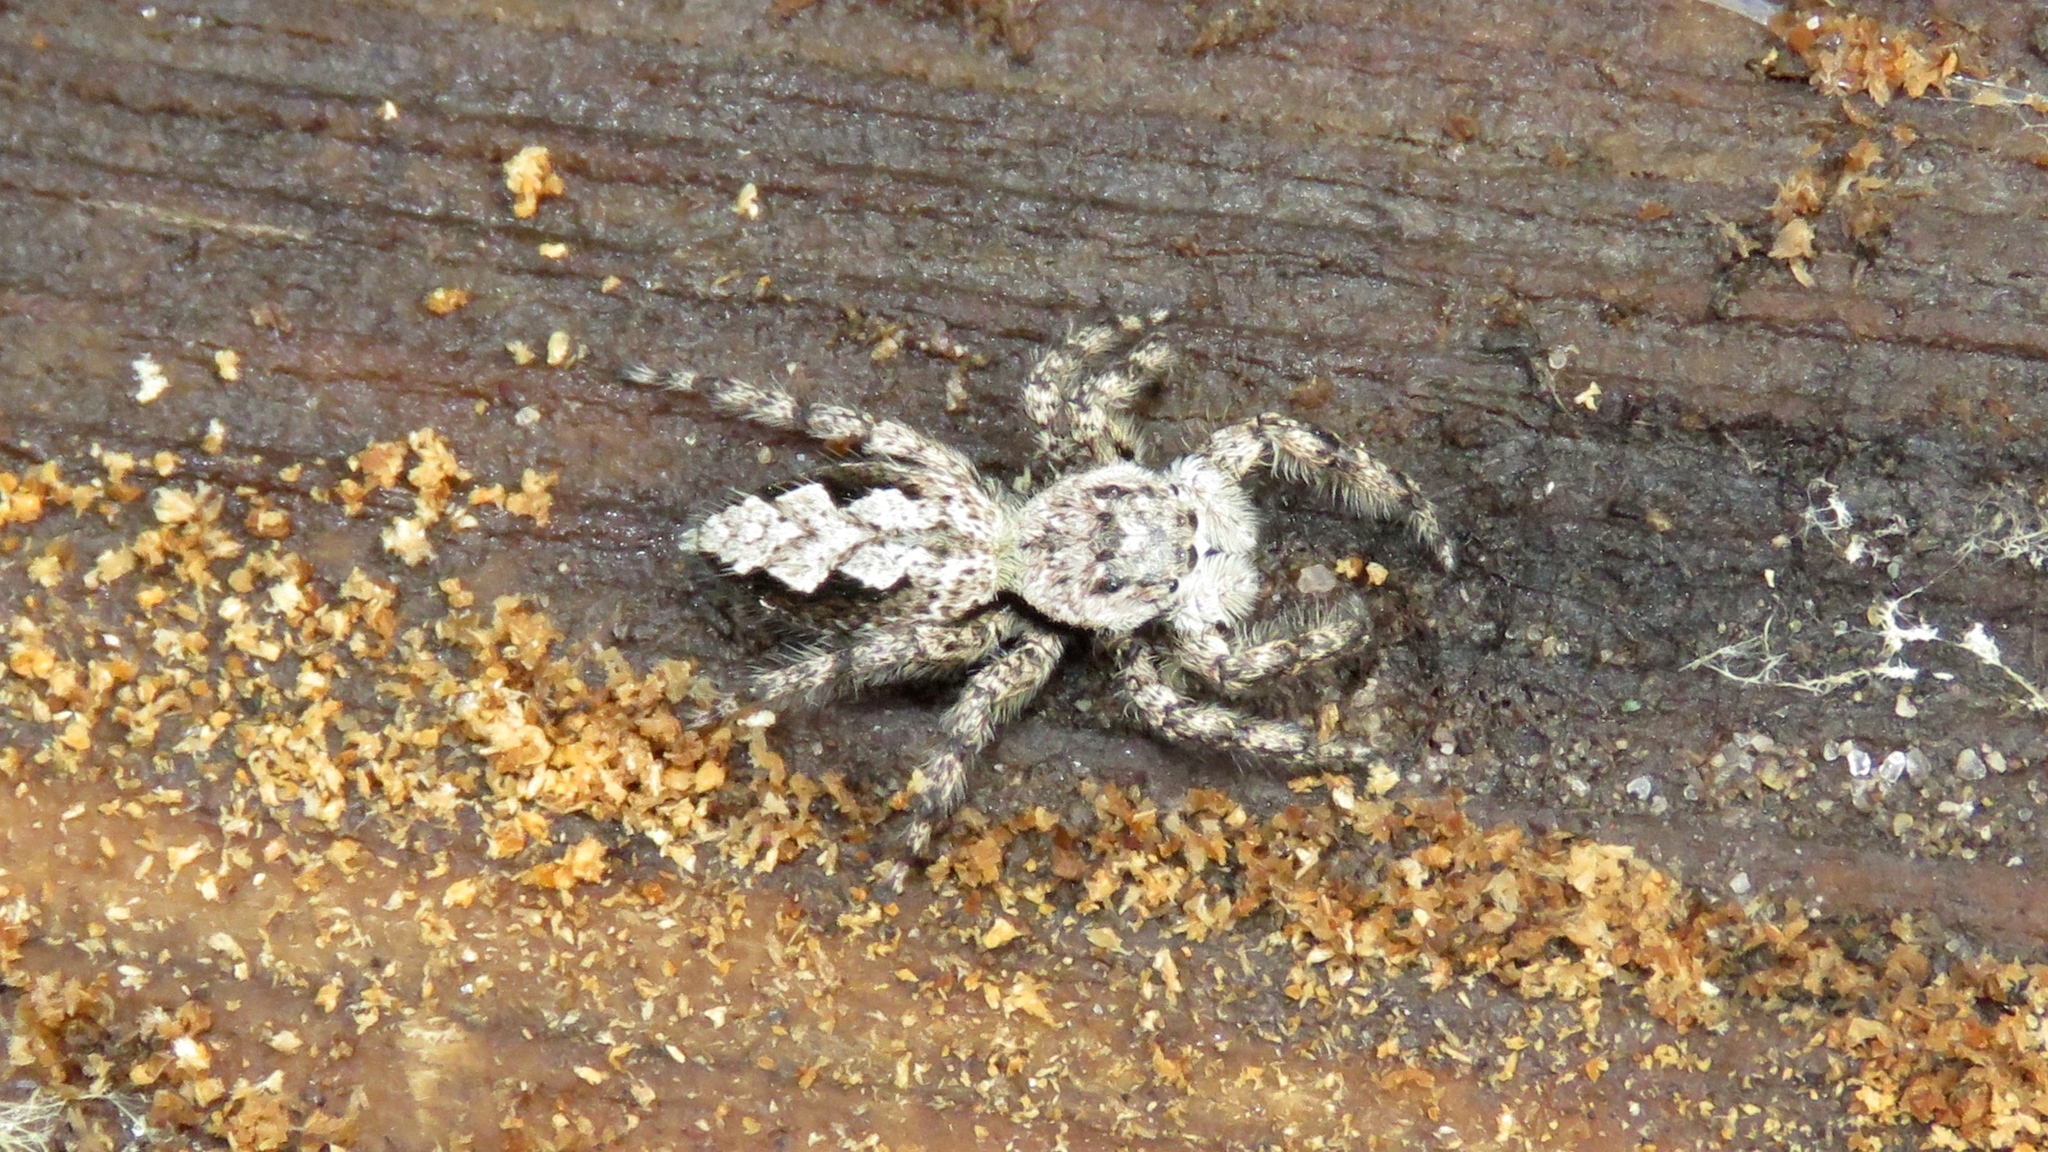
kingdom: Animalia
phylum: Arthropoda
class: Arachnida
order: Araneae
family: Salticidae
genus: Platycryptus
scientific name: Platycryptus undatus
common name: Tan jumping spider
